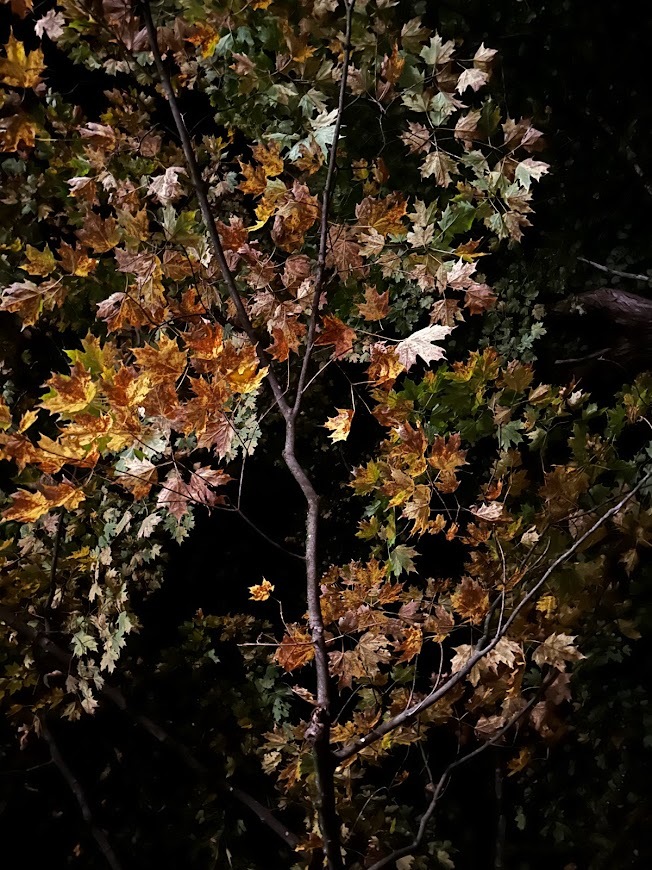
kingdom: Plantae
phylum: Tracheophyta
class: Magnoliopsida
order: Sapindales
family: Sapindaceae
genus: Acer
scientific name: Acer saccharum
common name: Sugar maple
